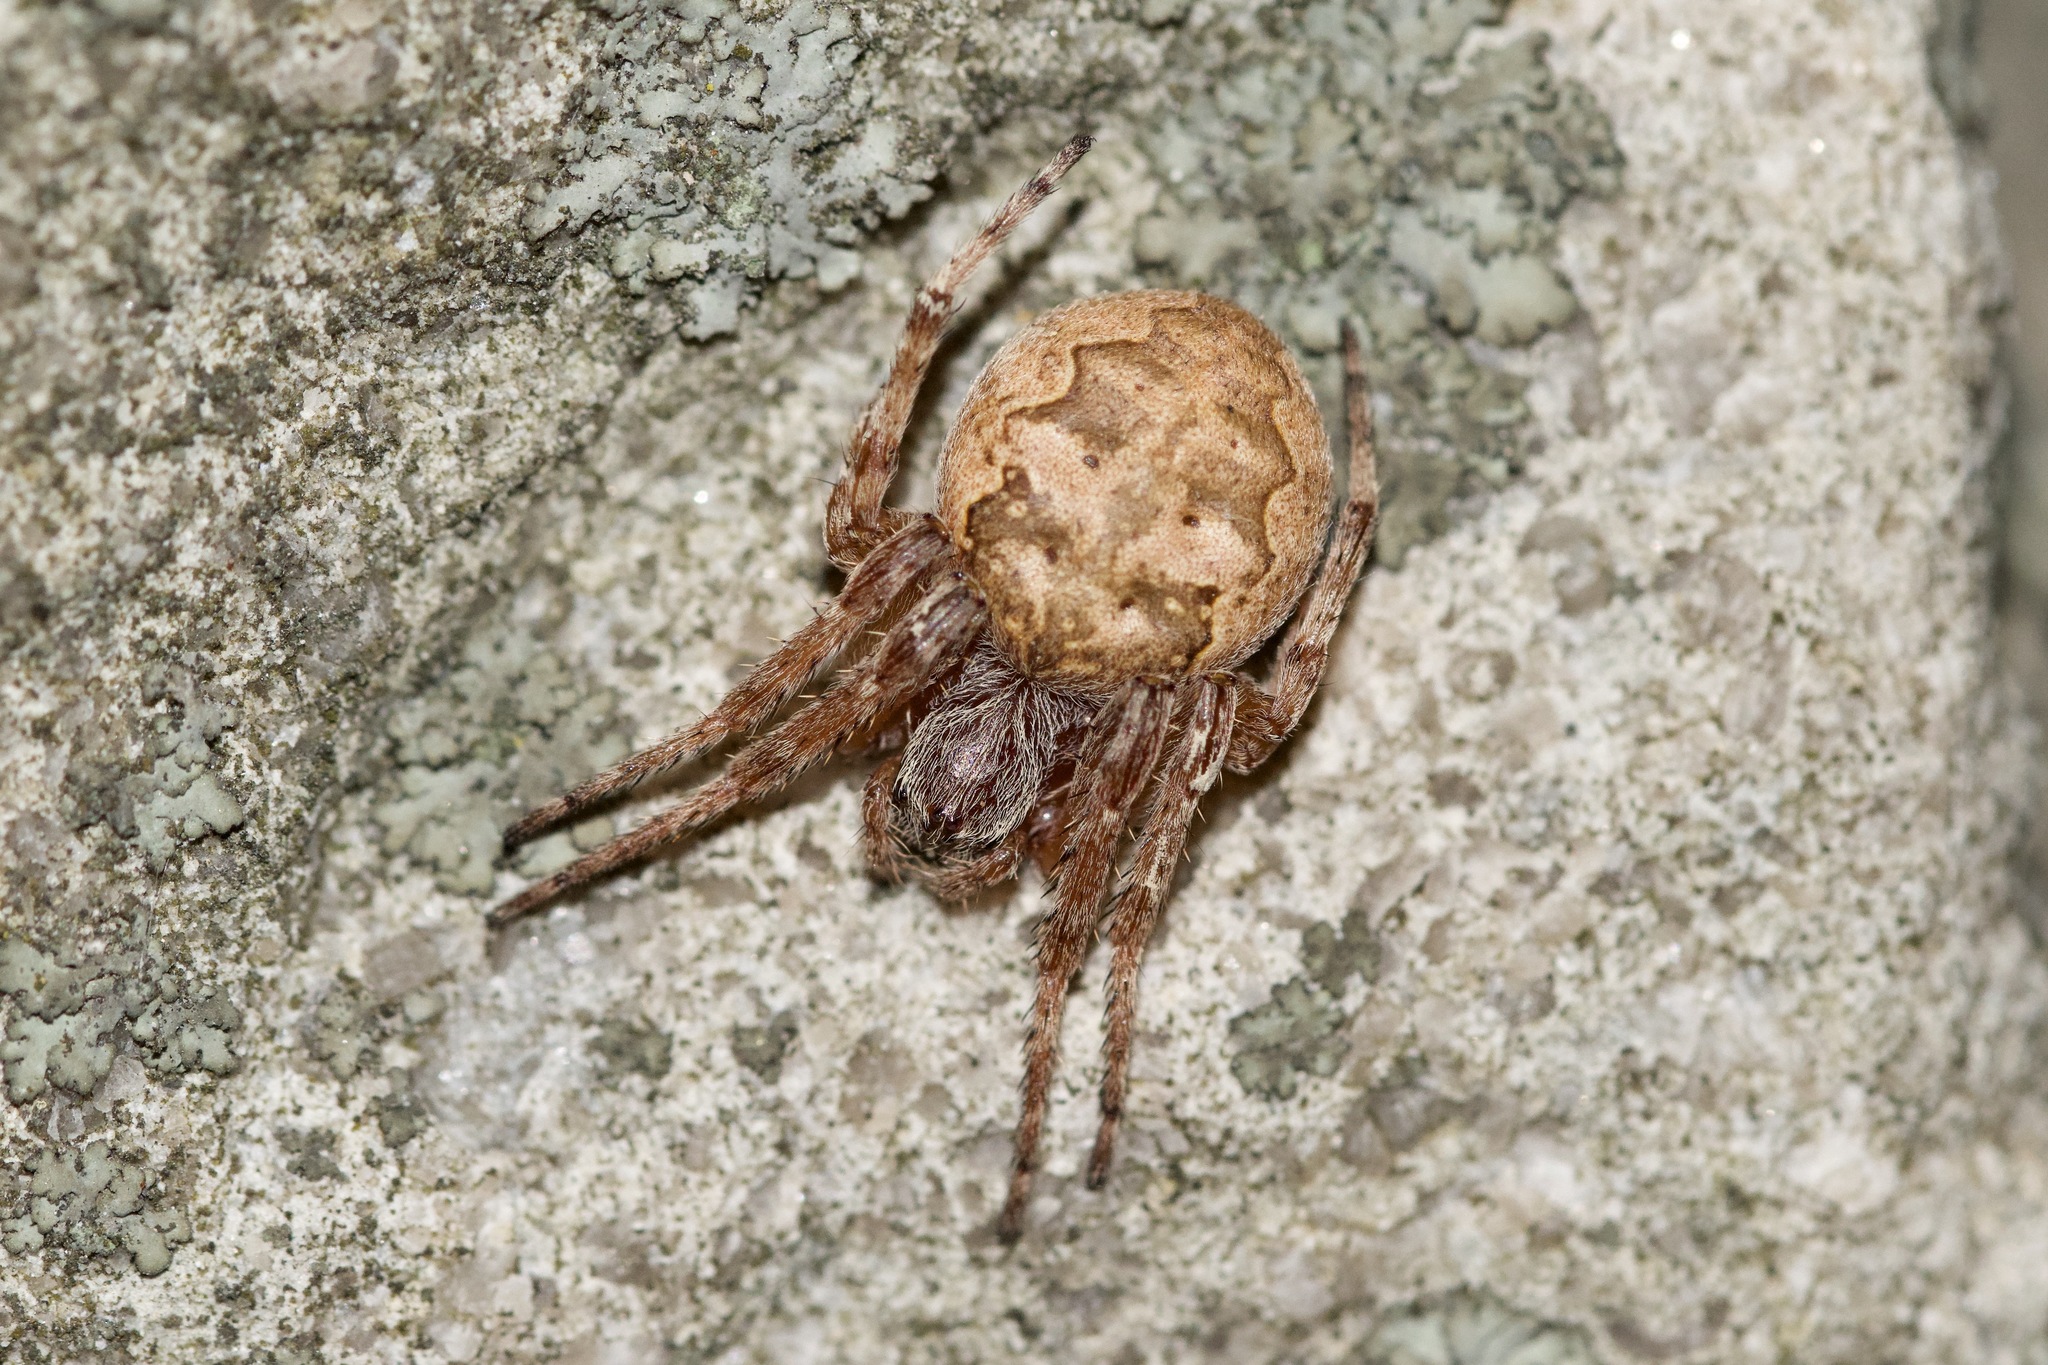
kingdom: Animalia
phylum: Arthropoda
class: Arachnida
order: Araneae
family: Araneidae
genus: Larinioides
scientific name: Larinioides patagiatus
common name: Ornamental orbweaver
